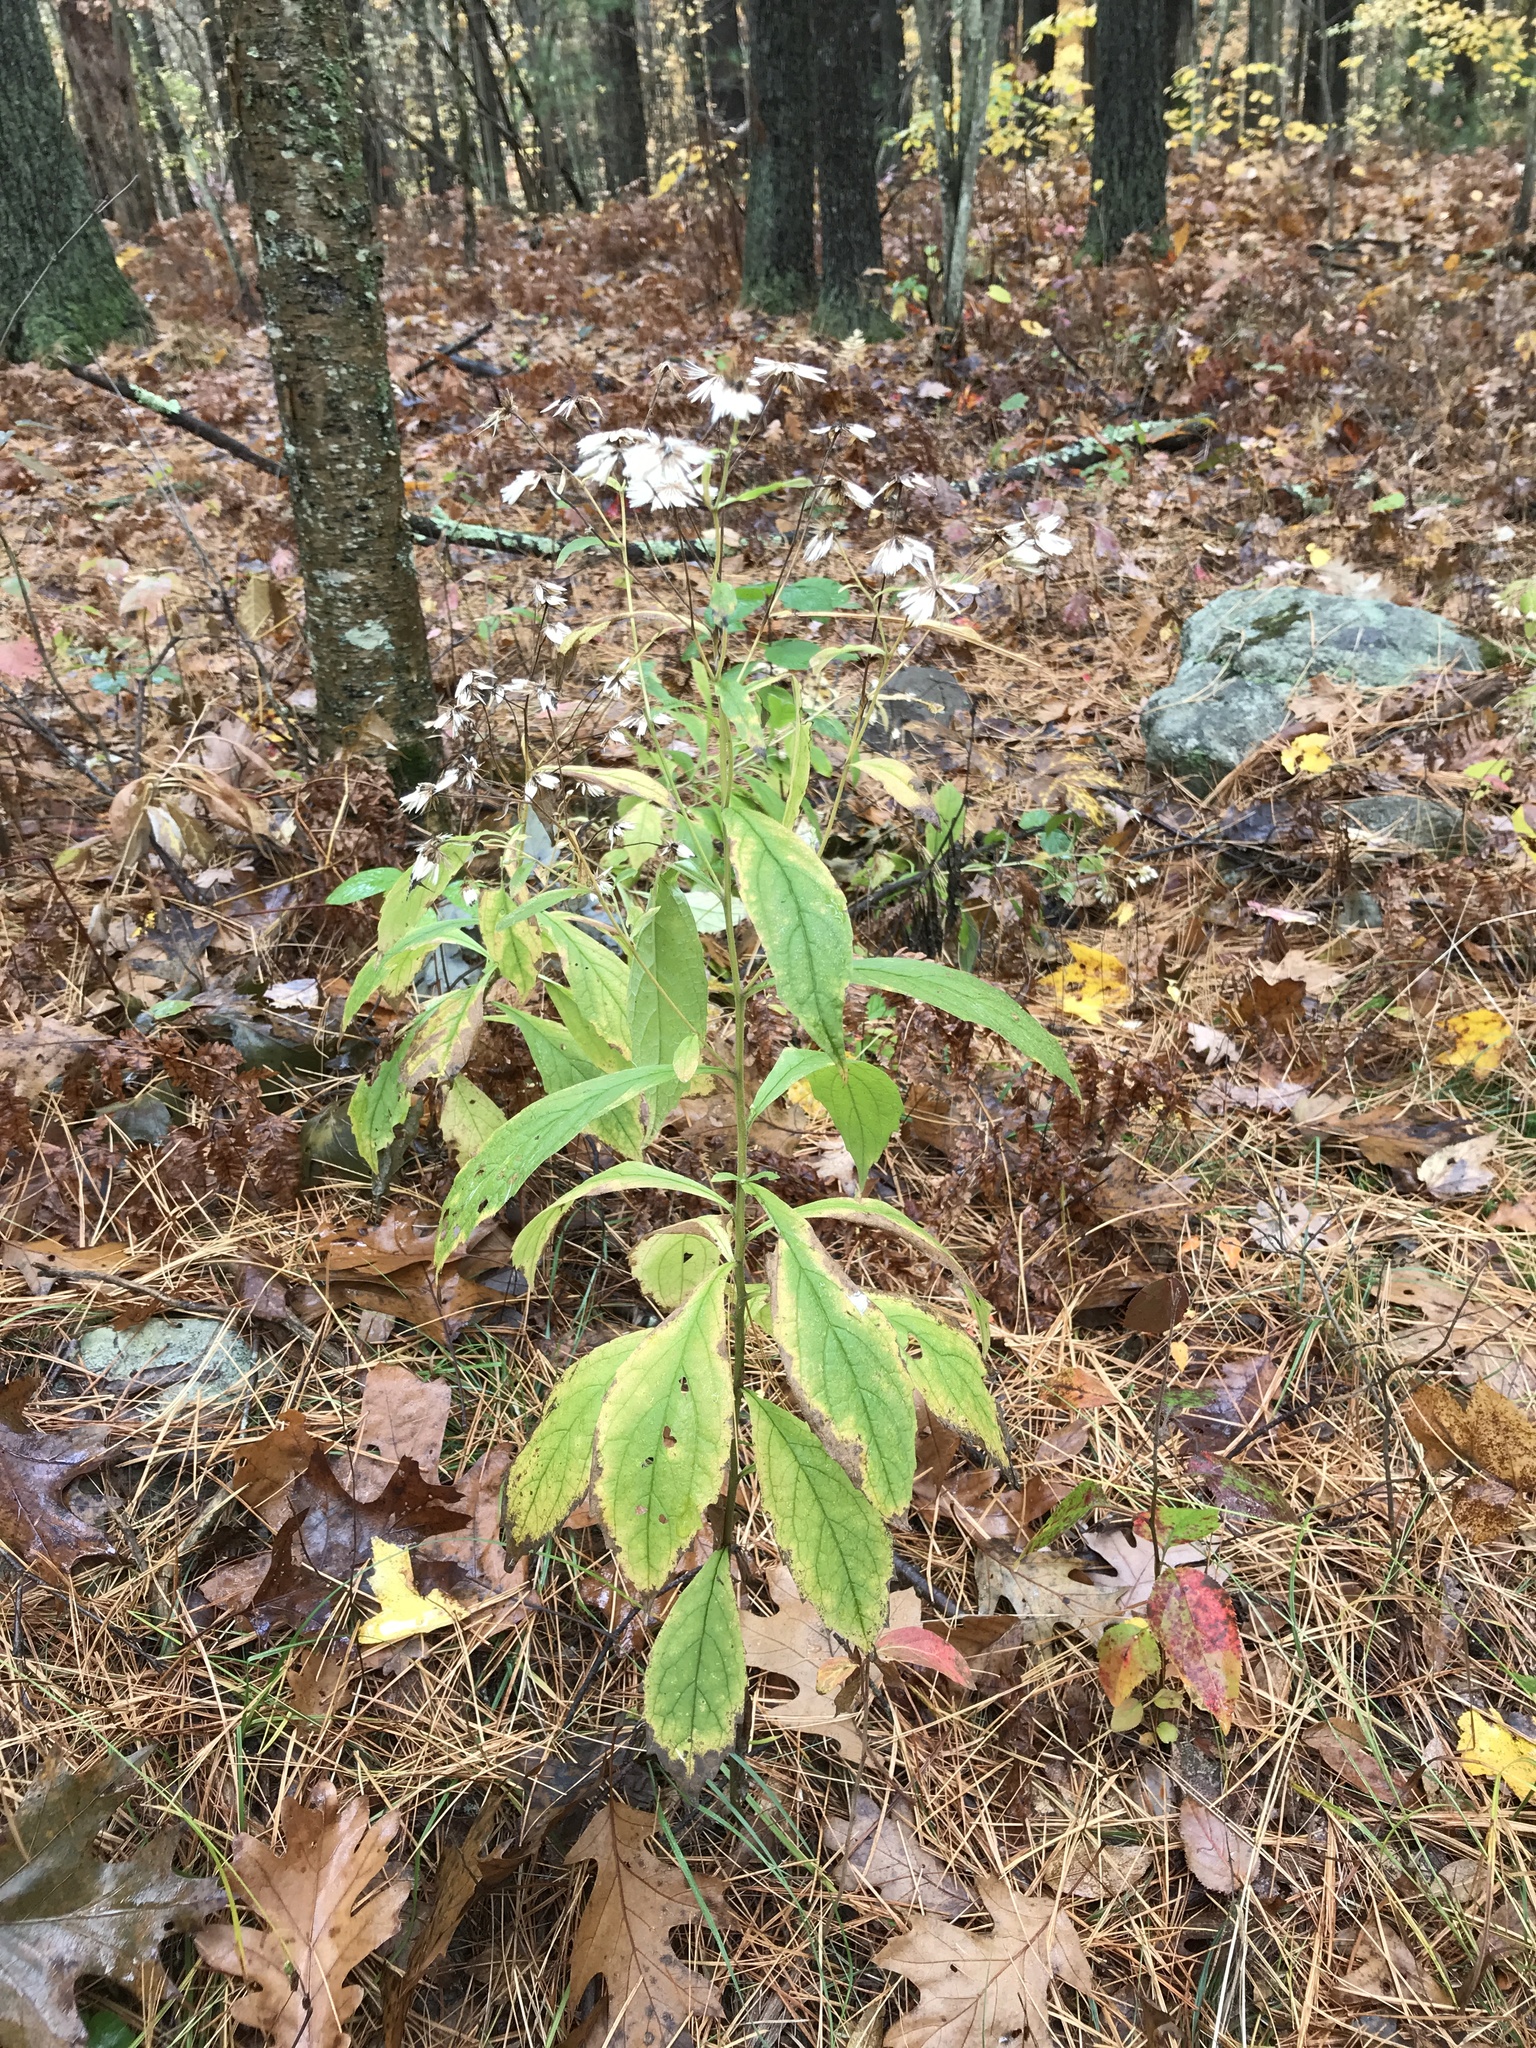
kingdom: Plantae
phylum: Tracheophyta
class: Magnoliopsida
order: Asterales
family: Asteraceae
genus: Oclemena
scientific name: Oclemena acuminata
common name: Mountain aster
